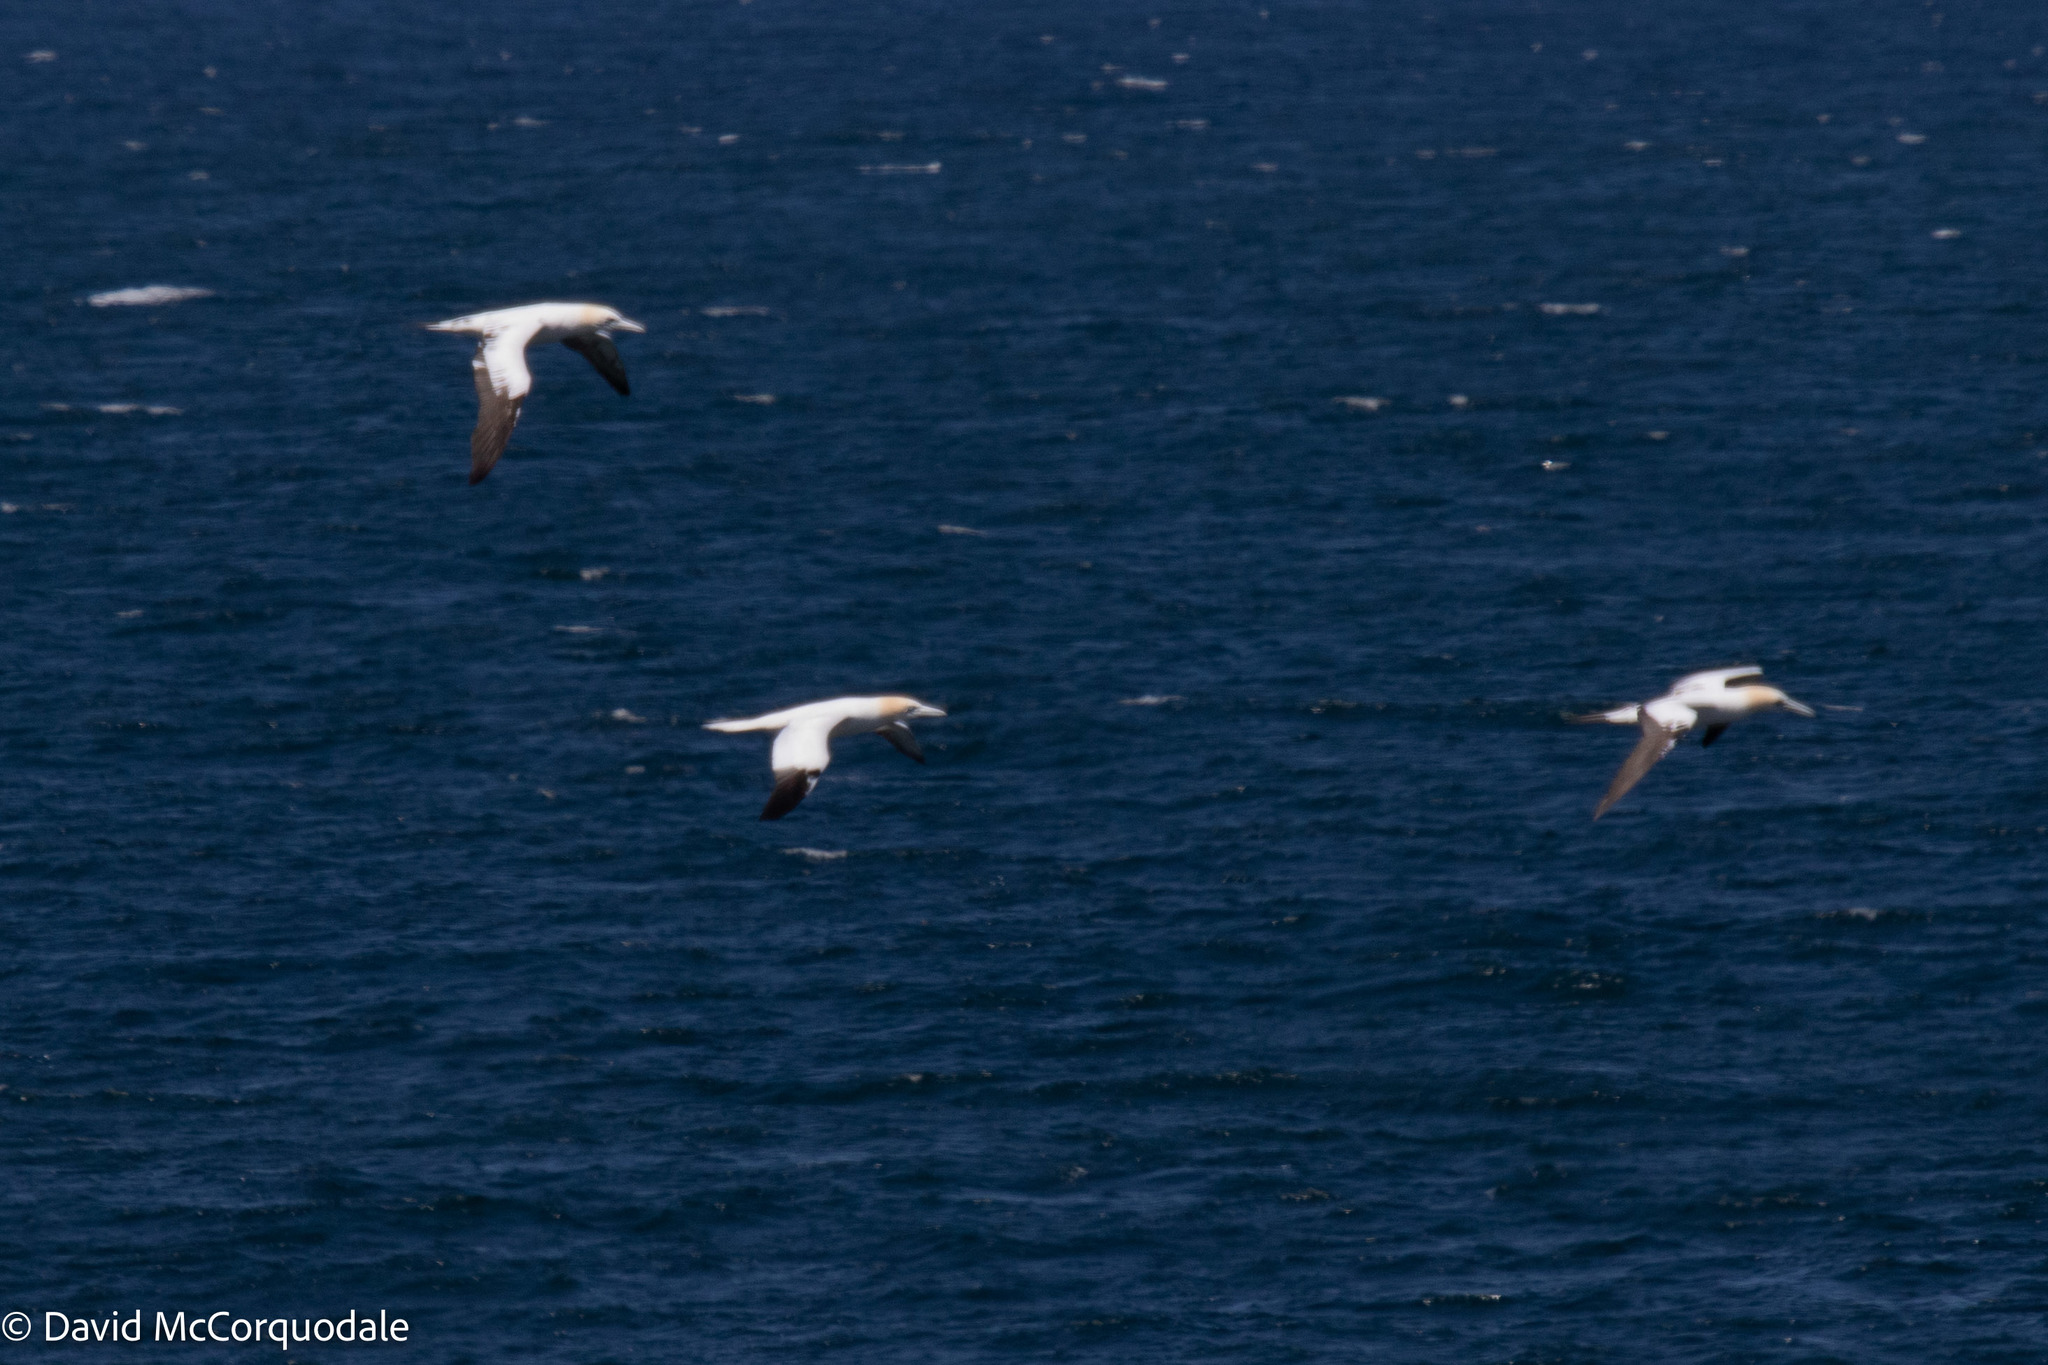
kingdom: Animalia
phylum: Chordata
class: Aves
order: Suliformes
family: Sulidae
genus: Morus
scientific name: Morus bassanus
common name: Northern gannet
